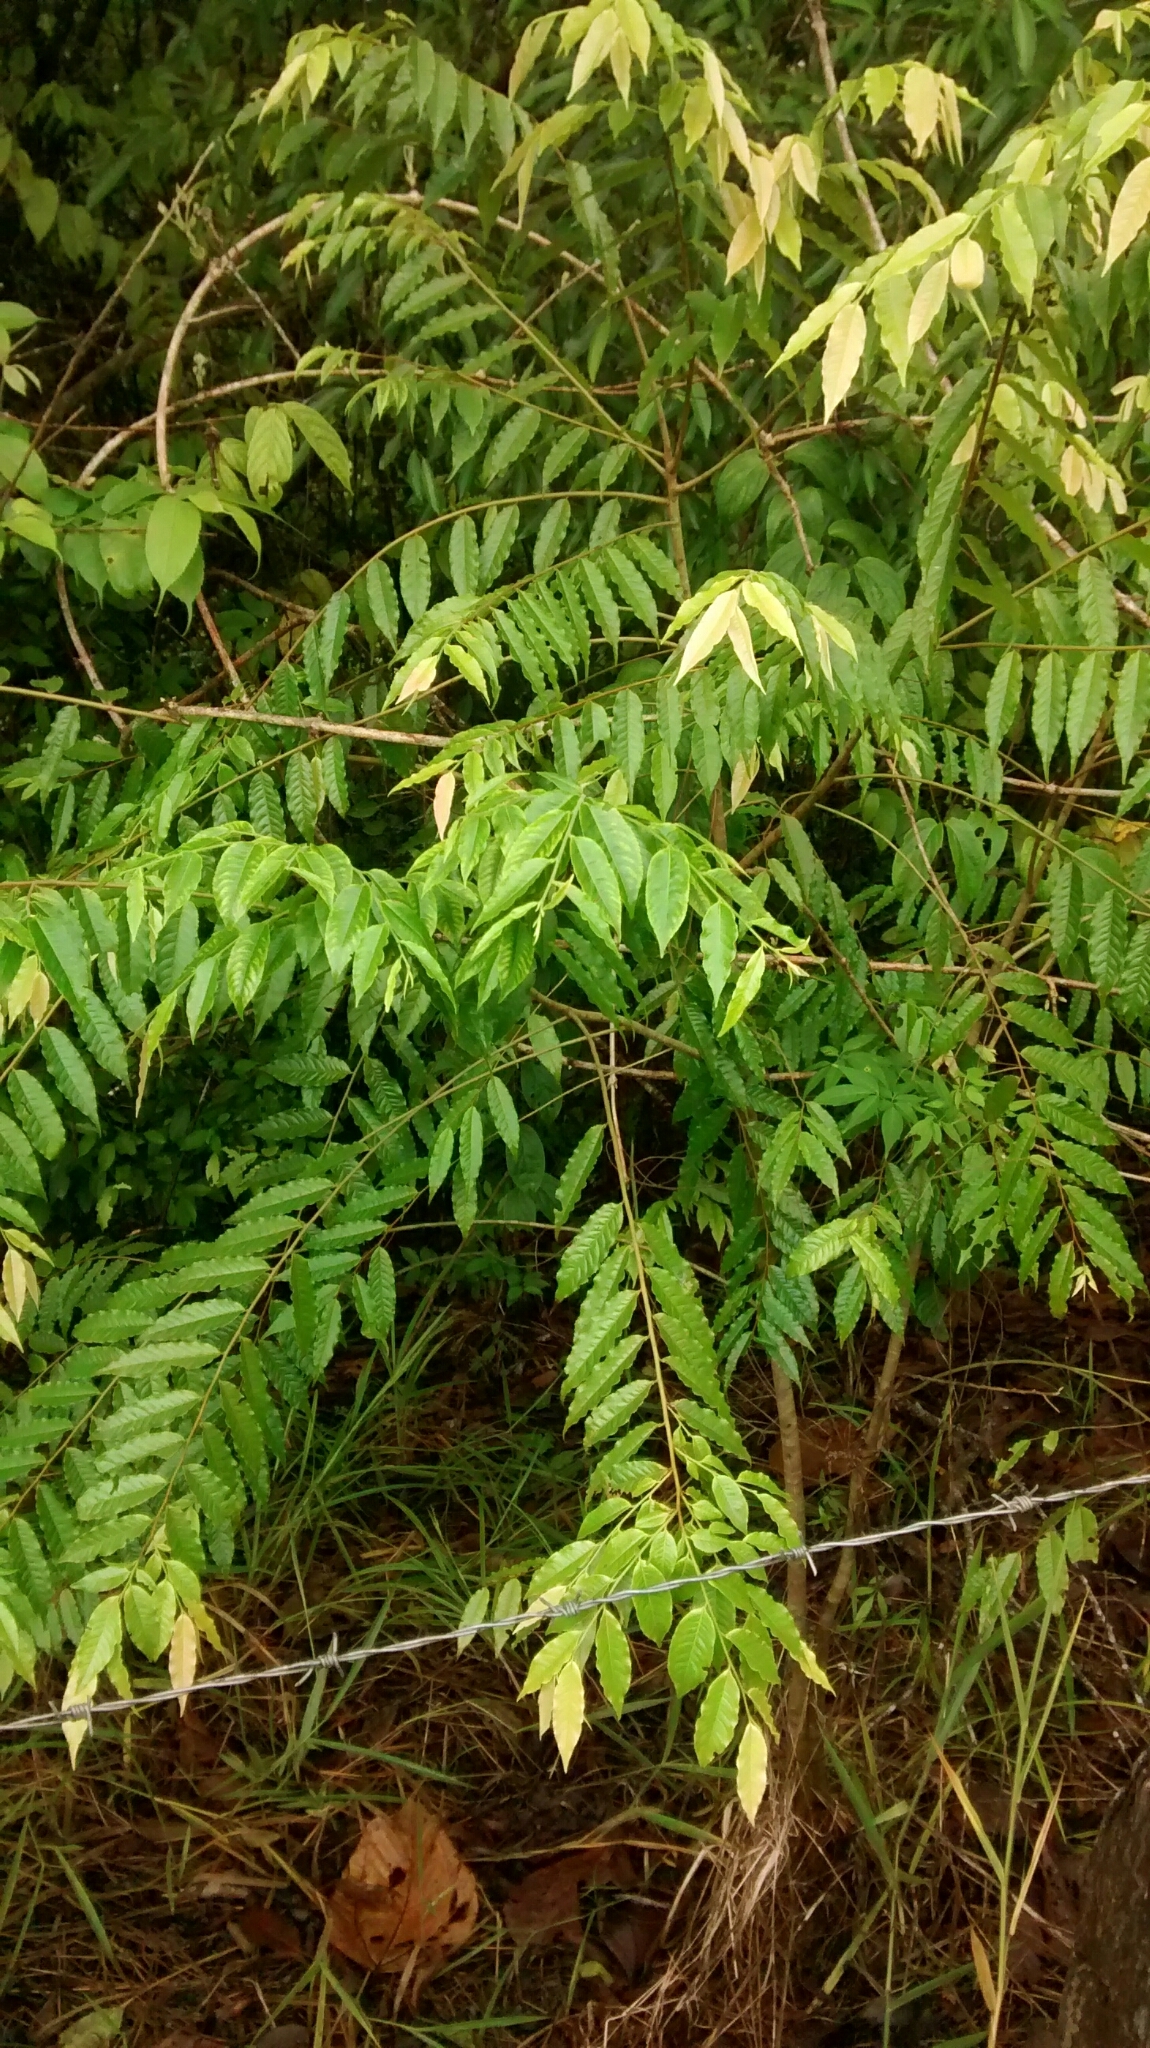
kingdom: Plantae
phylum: Tracheophyta
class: Magnoliopsida
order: Ericales
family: Lecythidaceae
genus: Cariniana
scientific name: Cariniana pyriformis
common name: Colombian mahogany
